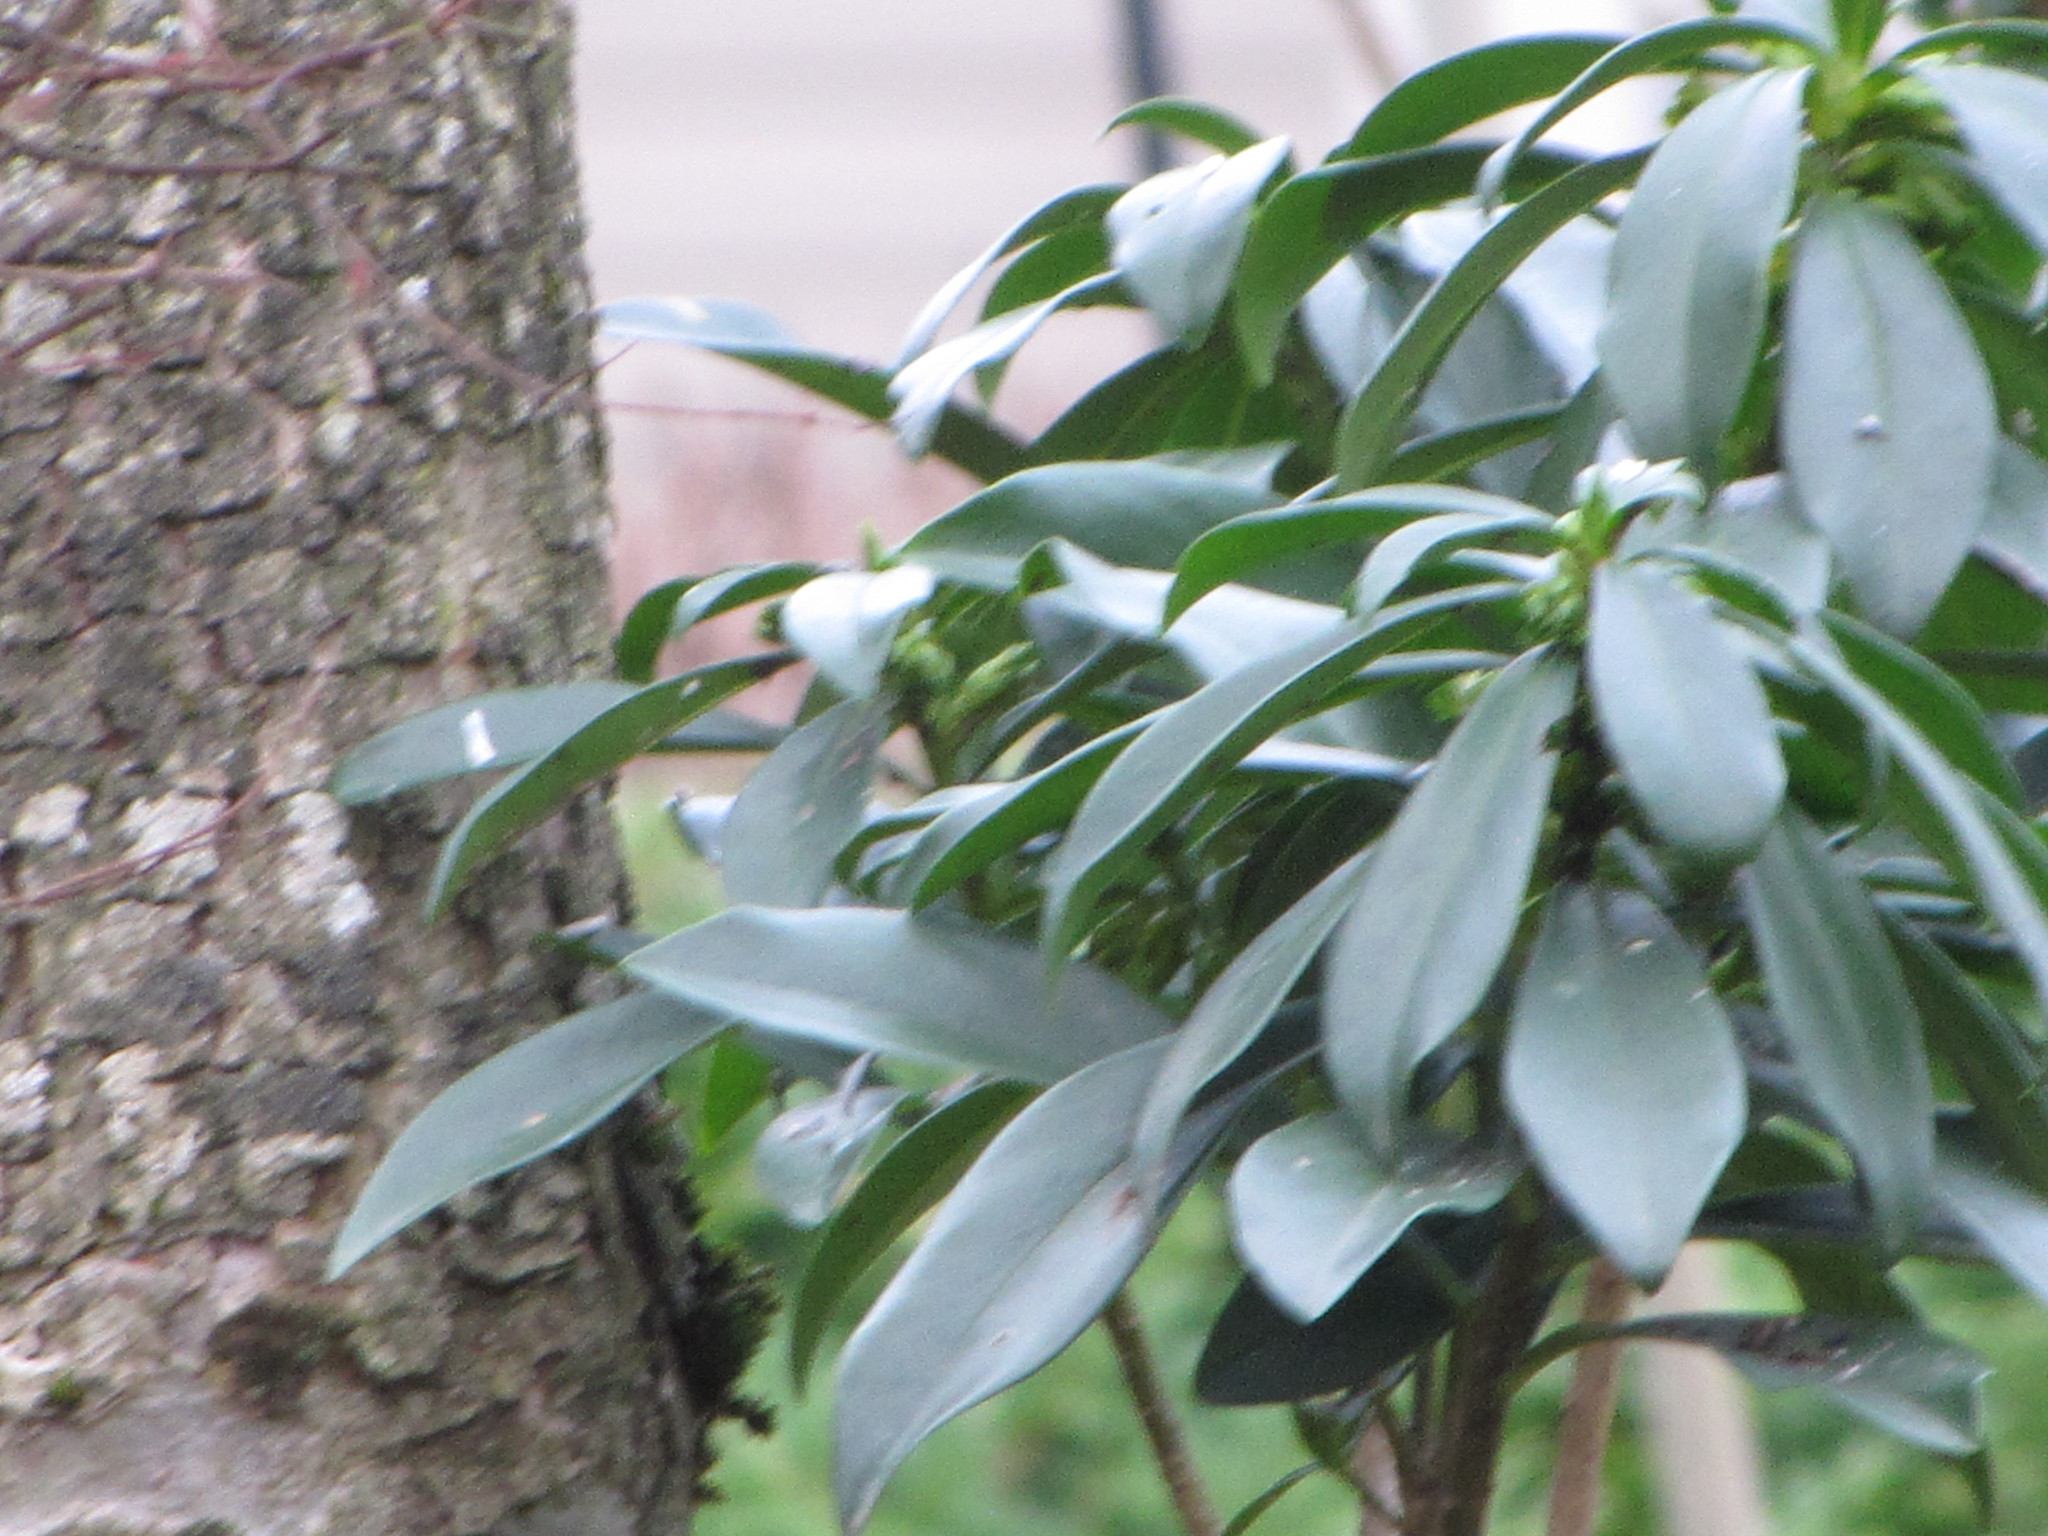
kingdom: Plantae
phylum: Tracheophyta
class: Magnoliopsida
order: Malvales
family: Thymelaeaceae
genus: Daphne
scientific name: Daphne laureola
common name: Spurge-laurel
